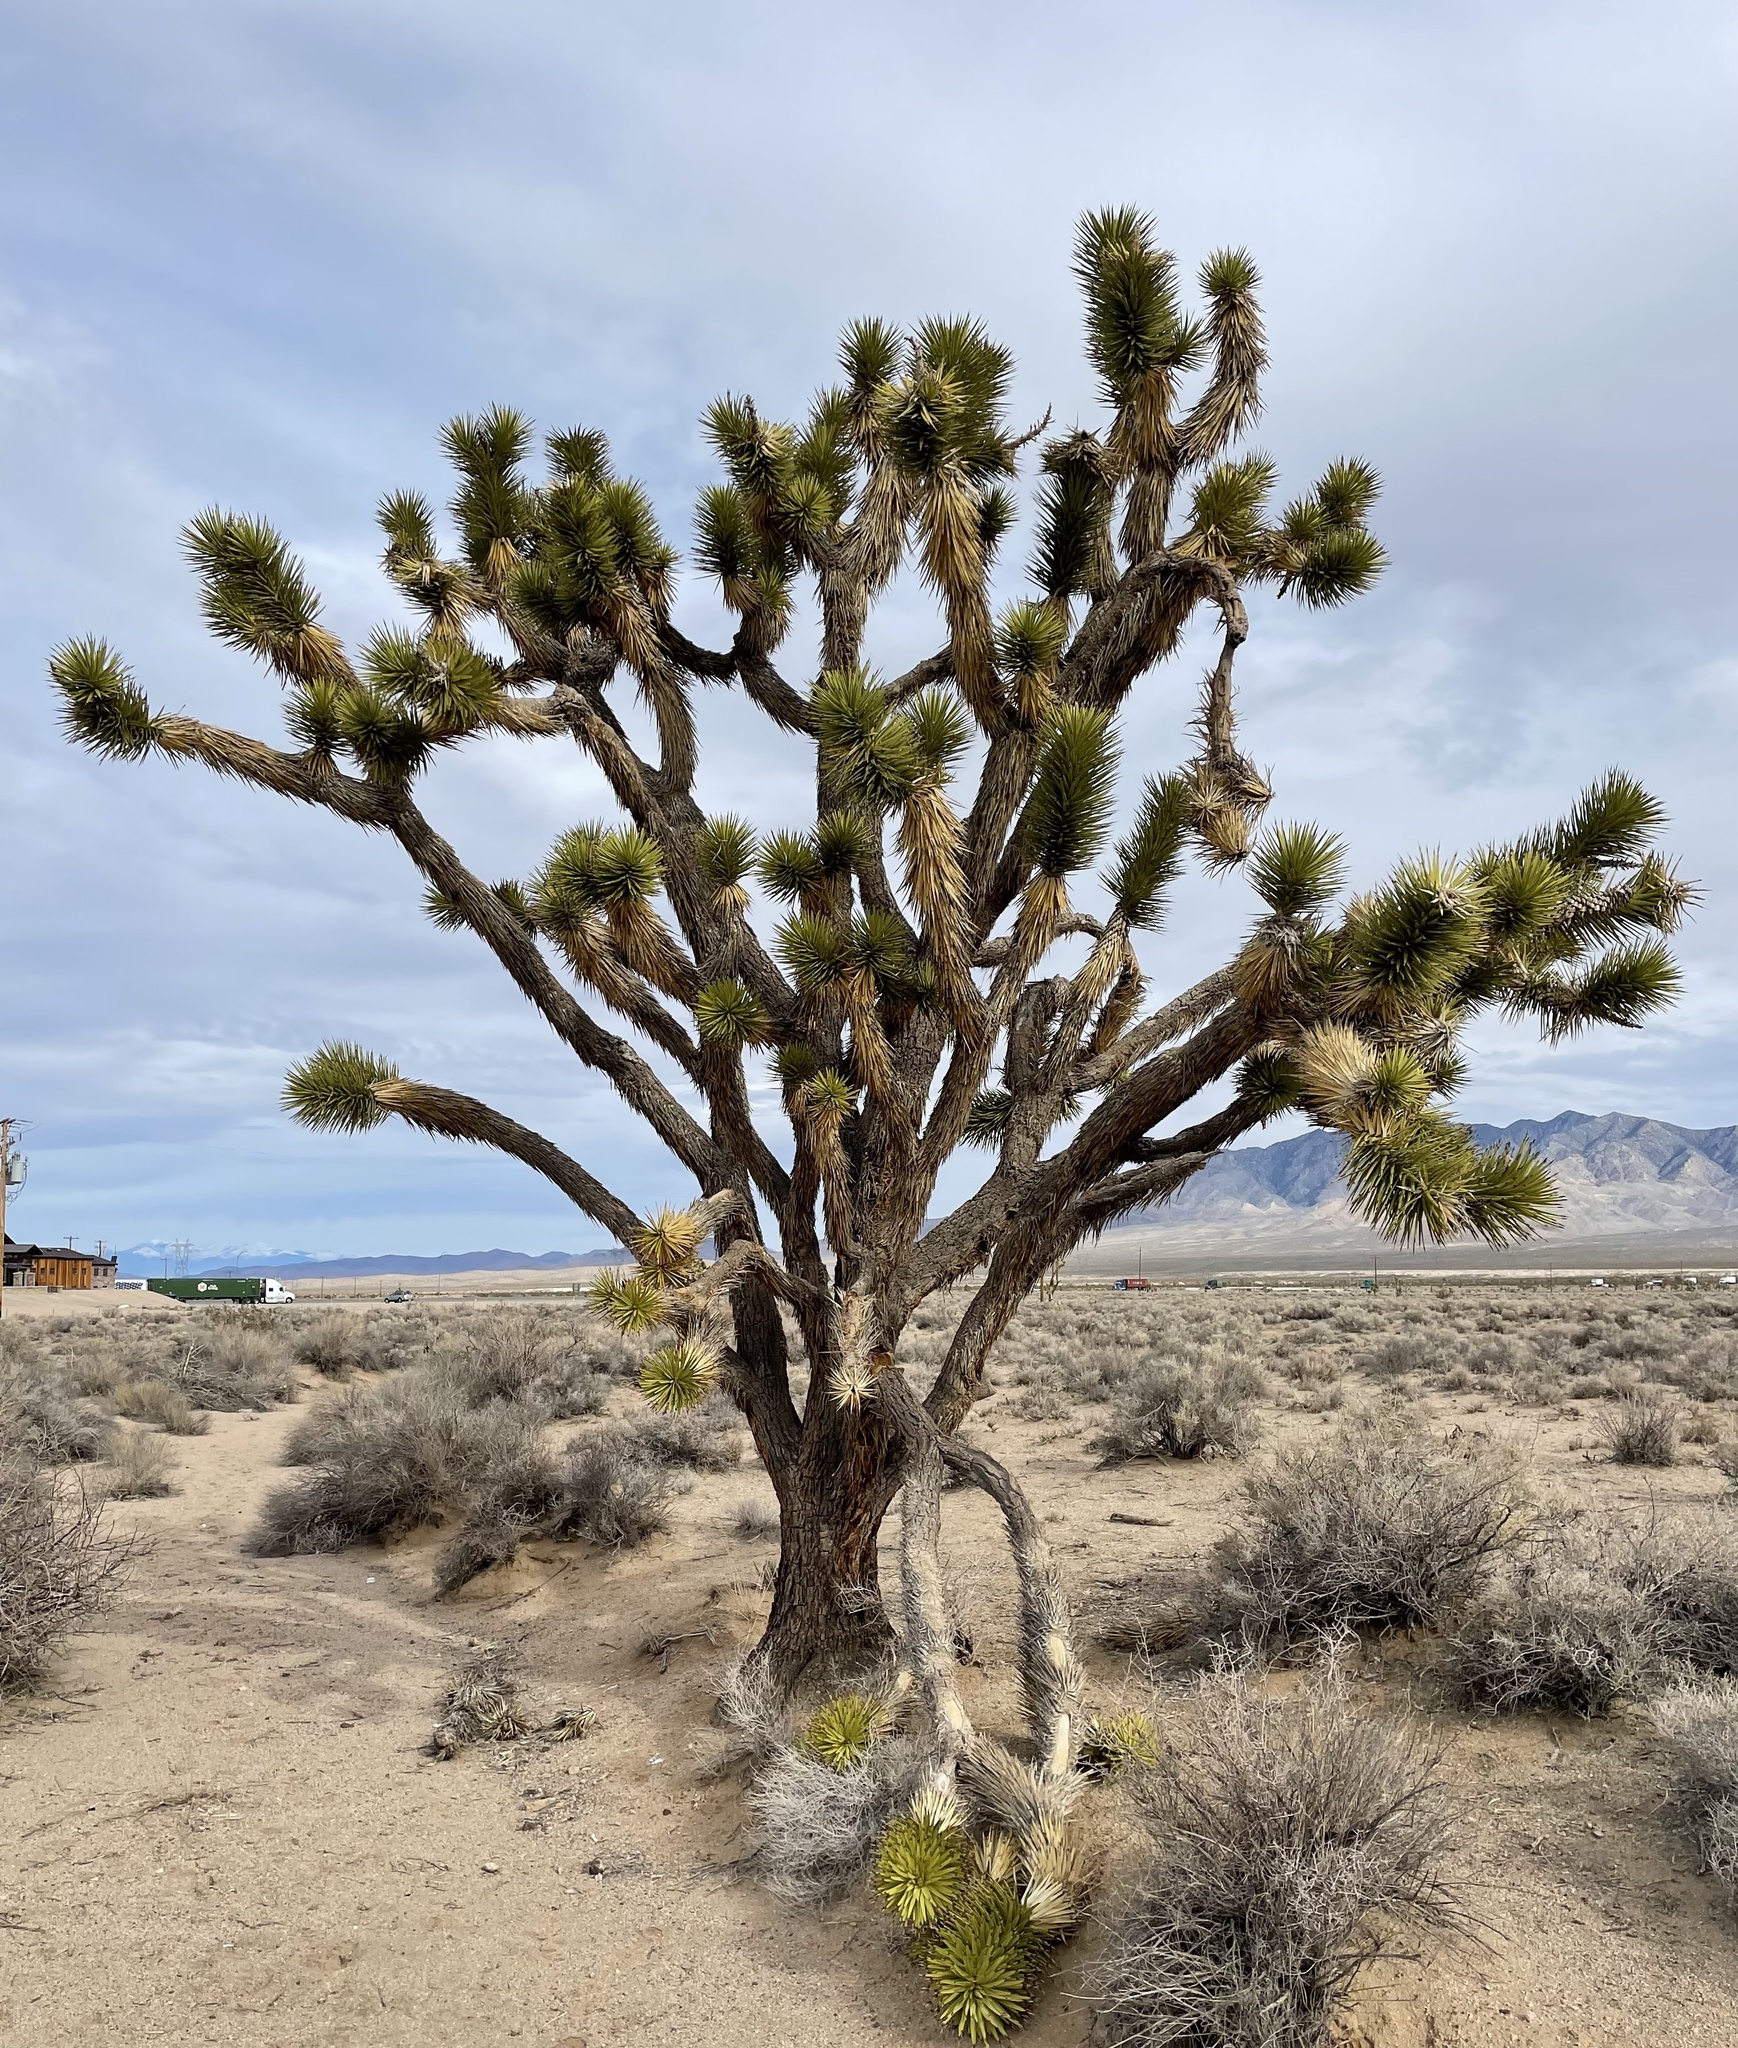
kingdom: Plantae
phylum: Tracheophyta
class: Liliopsida
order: Asparagales
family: Asparagaceae
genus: Yucca
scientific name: Yucca brevifolia
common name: Joshua tree
